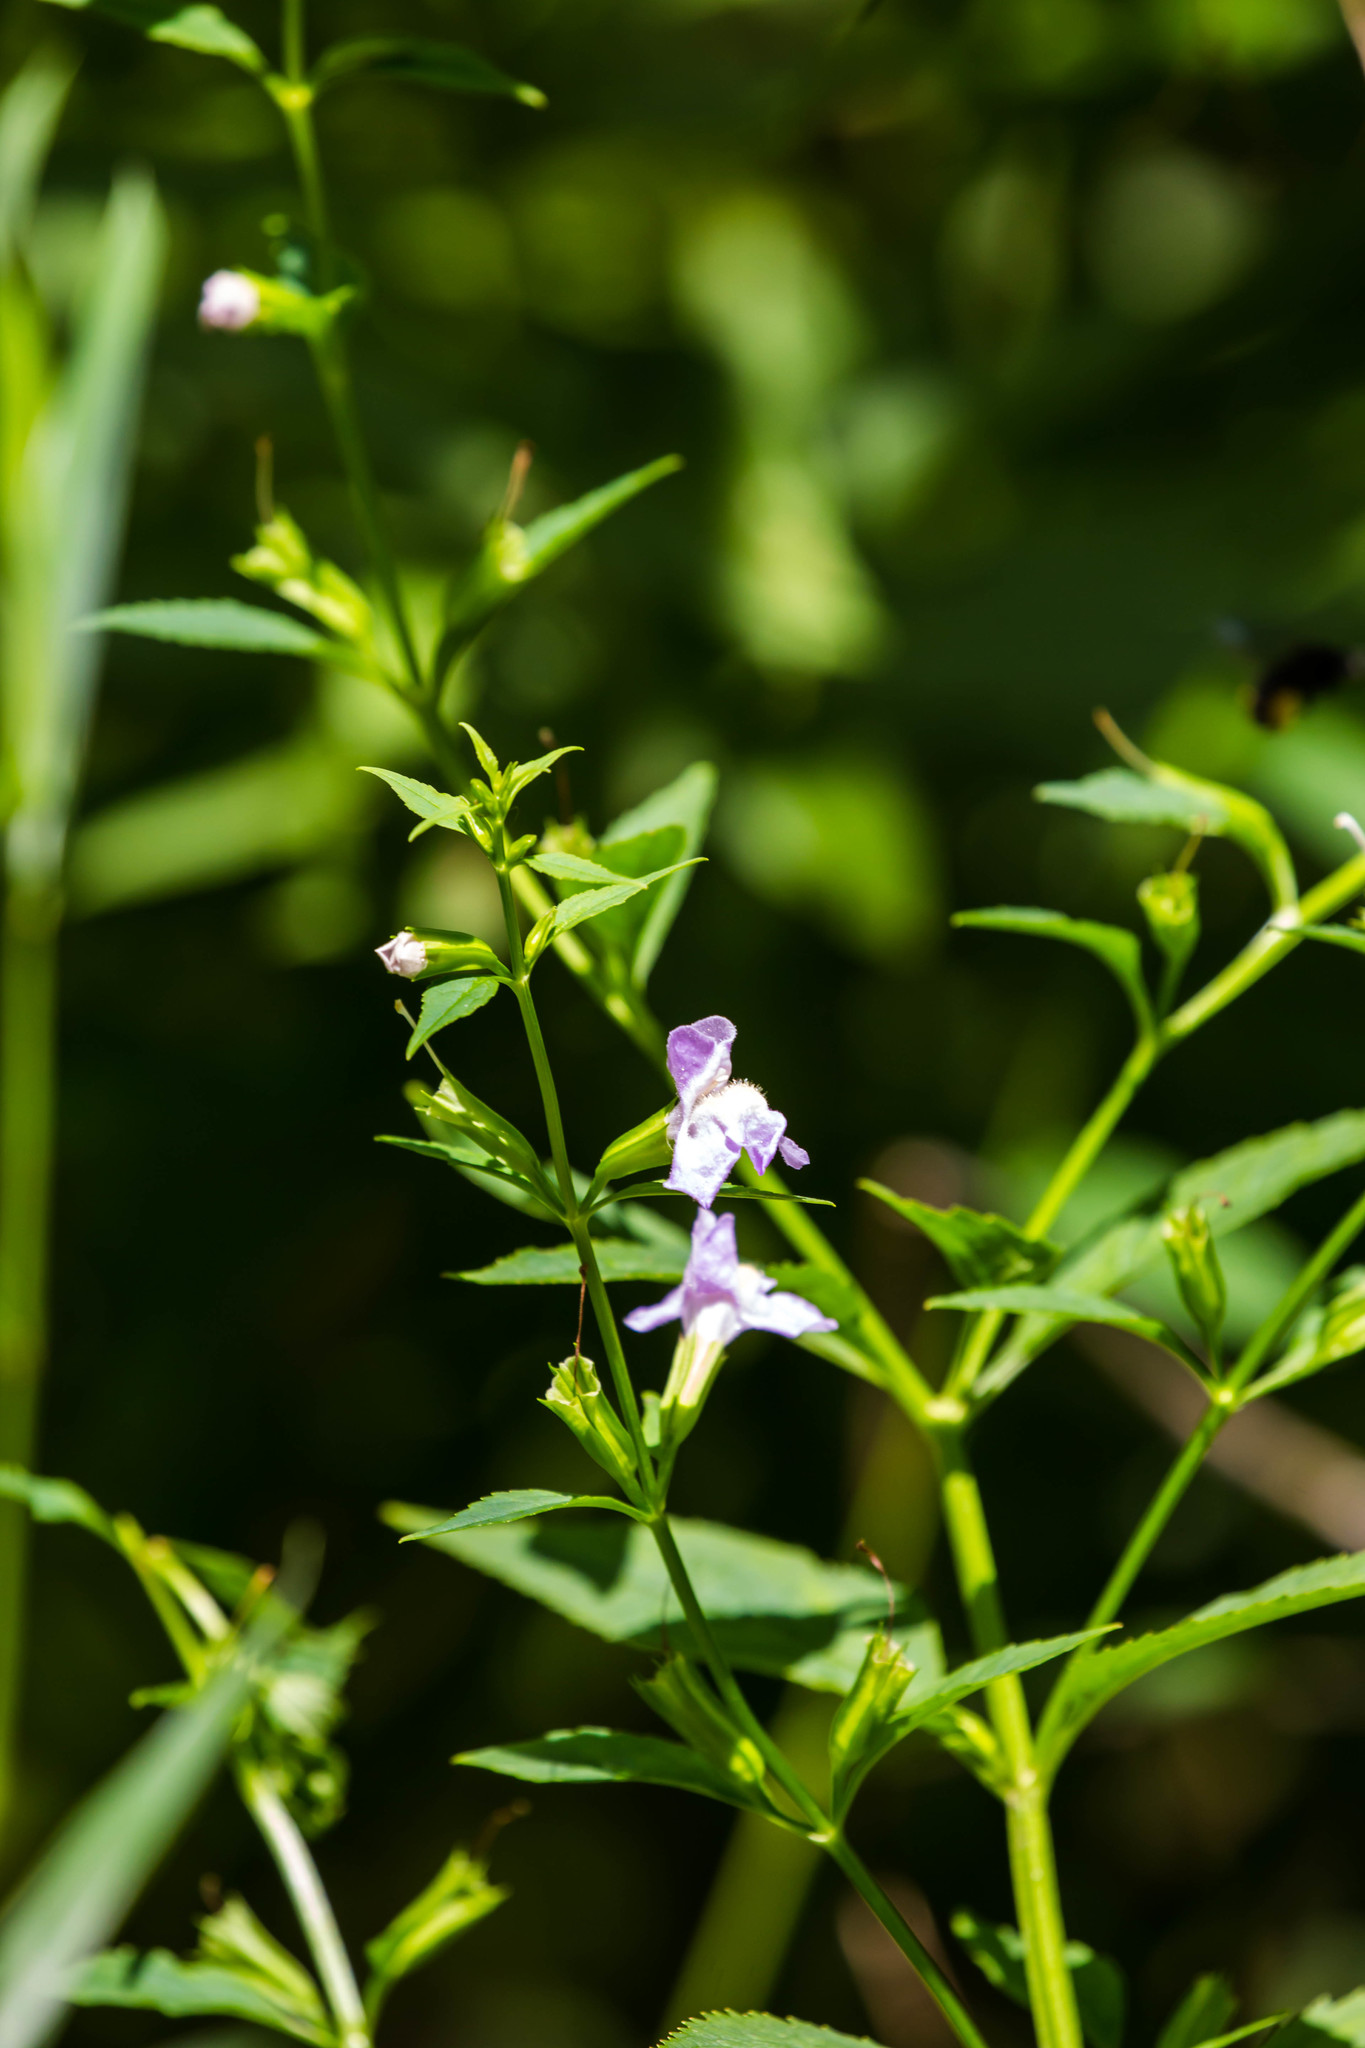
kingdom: Plantae
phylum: Tracheophyta
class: Magnoliopsida
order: Lamiales
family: Phrymaceae
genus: Mimulus
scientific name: Mimulus alatus
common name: Sharp-wing monkey-flower
